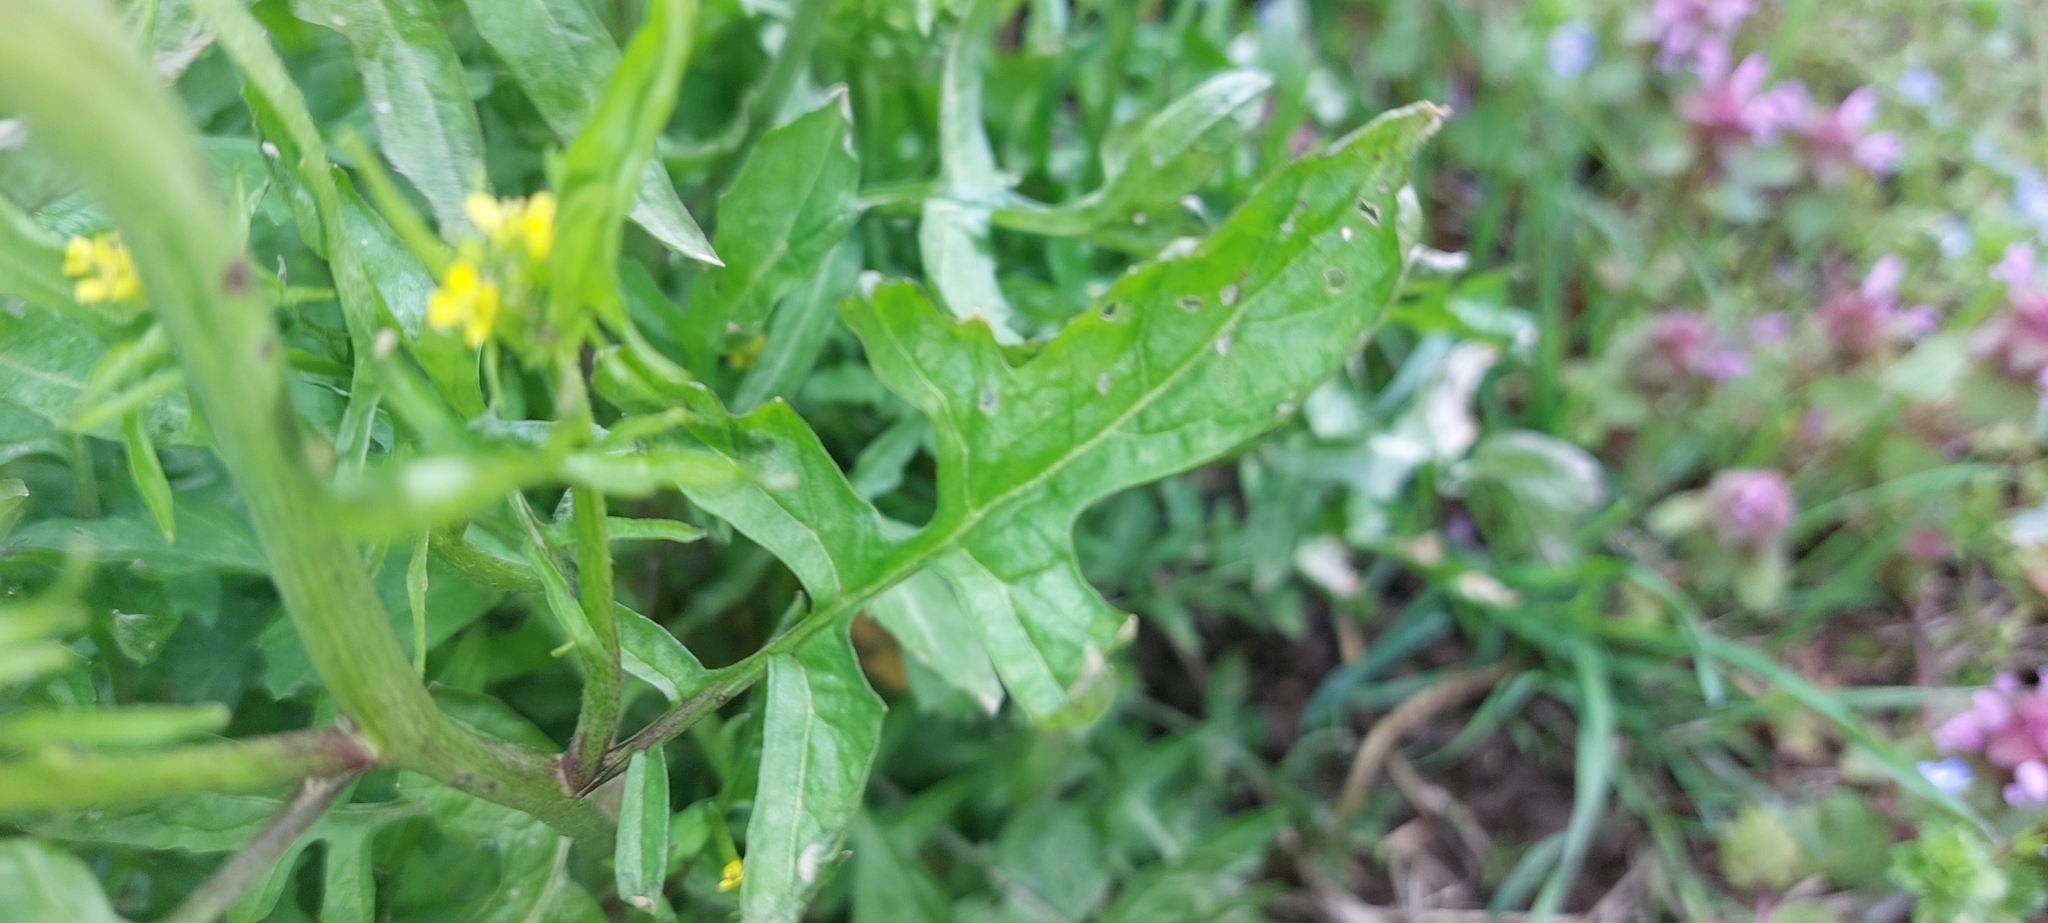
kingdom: Plantae
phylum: Tracheophyta
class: Magnoliopsida
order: Brassicales
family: Brassicaceae
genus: Sisymbrium
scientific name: Sisymbrium officinale
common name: Hedge mustard
